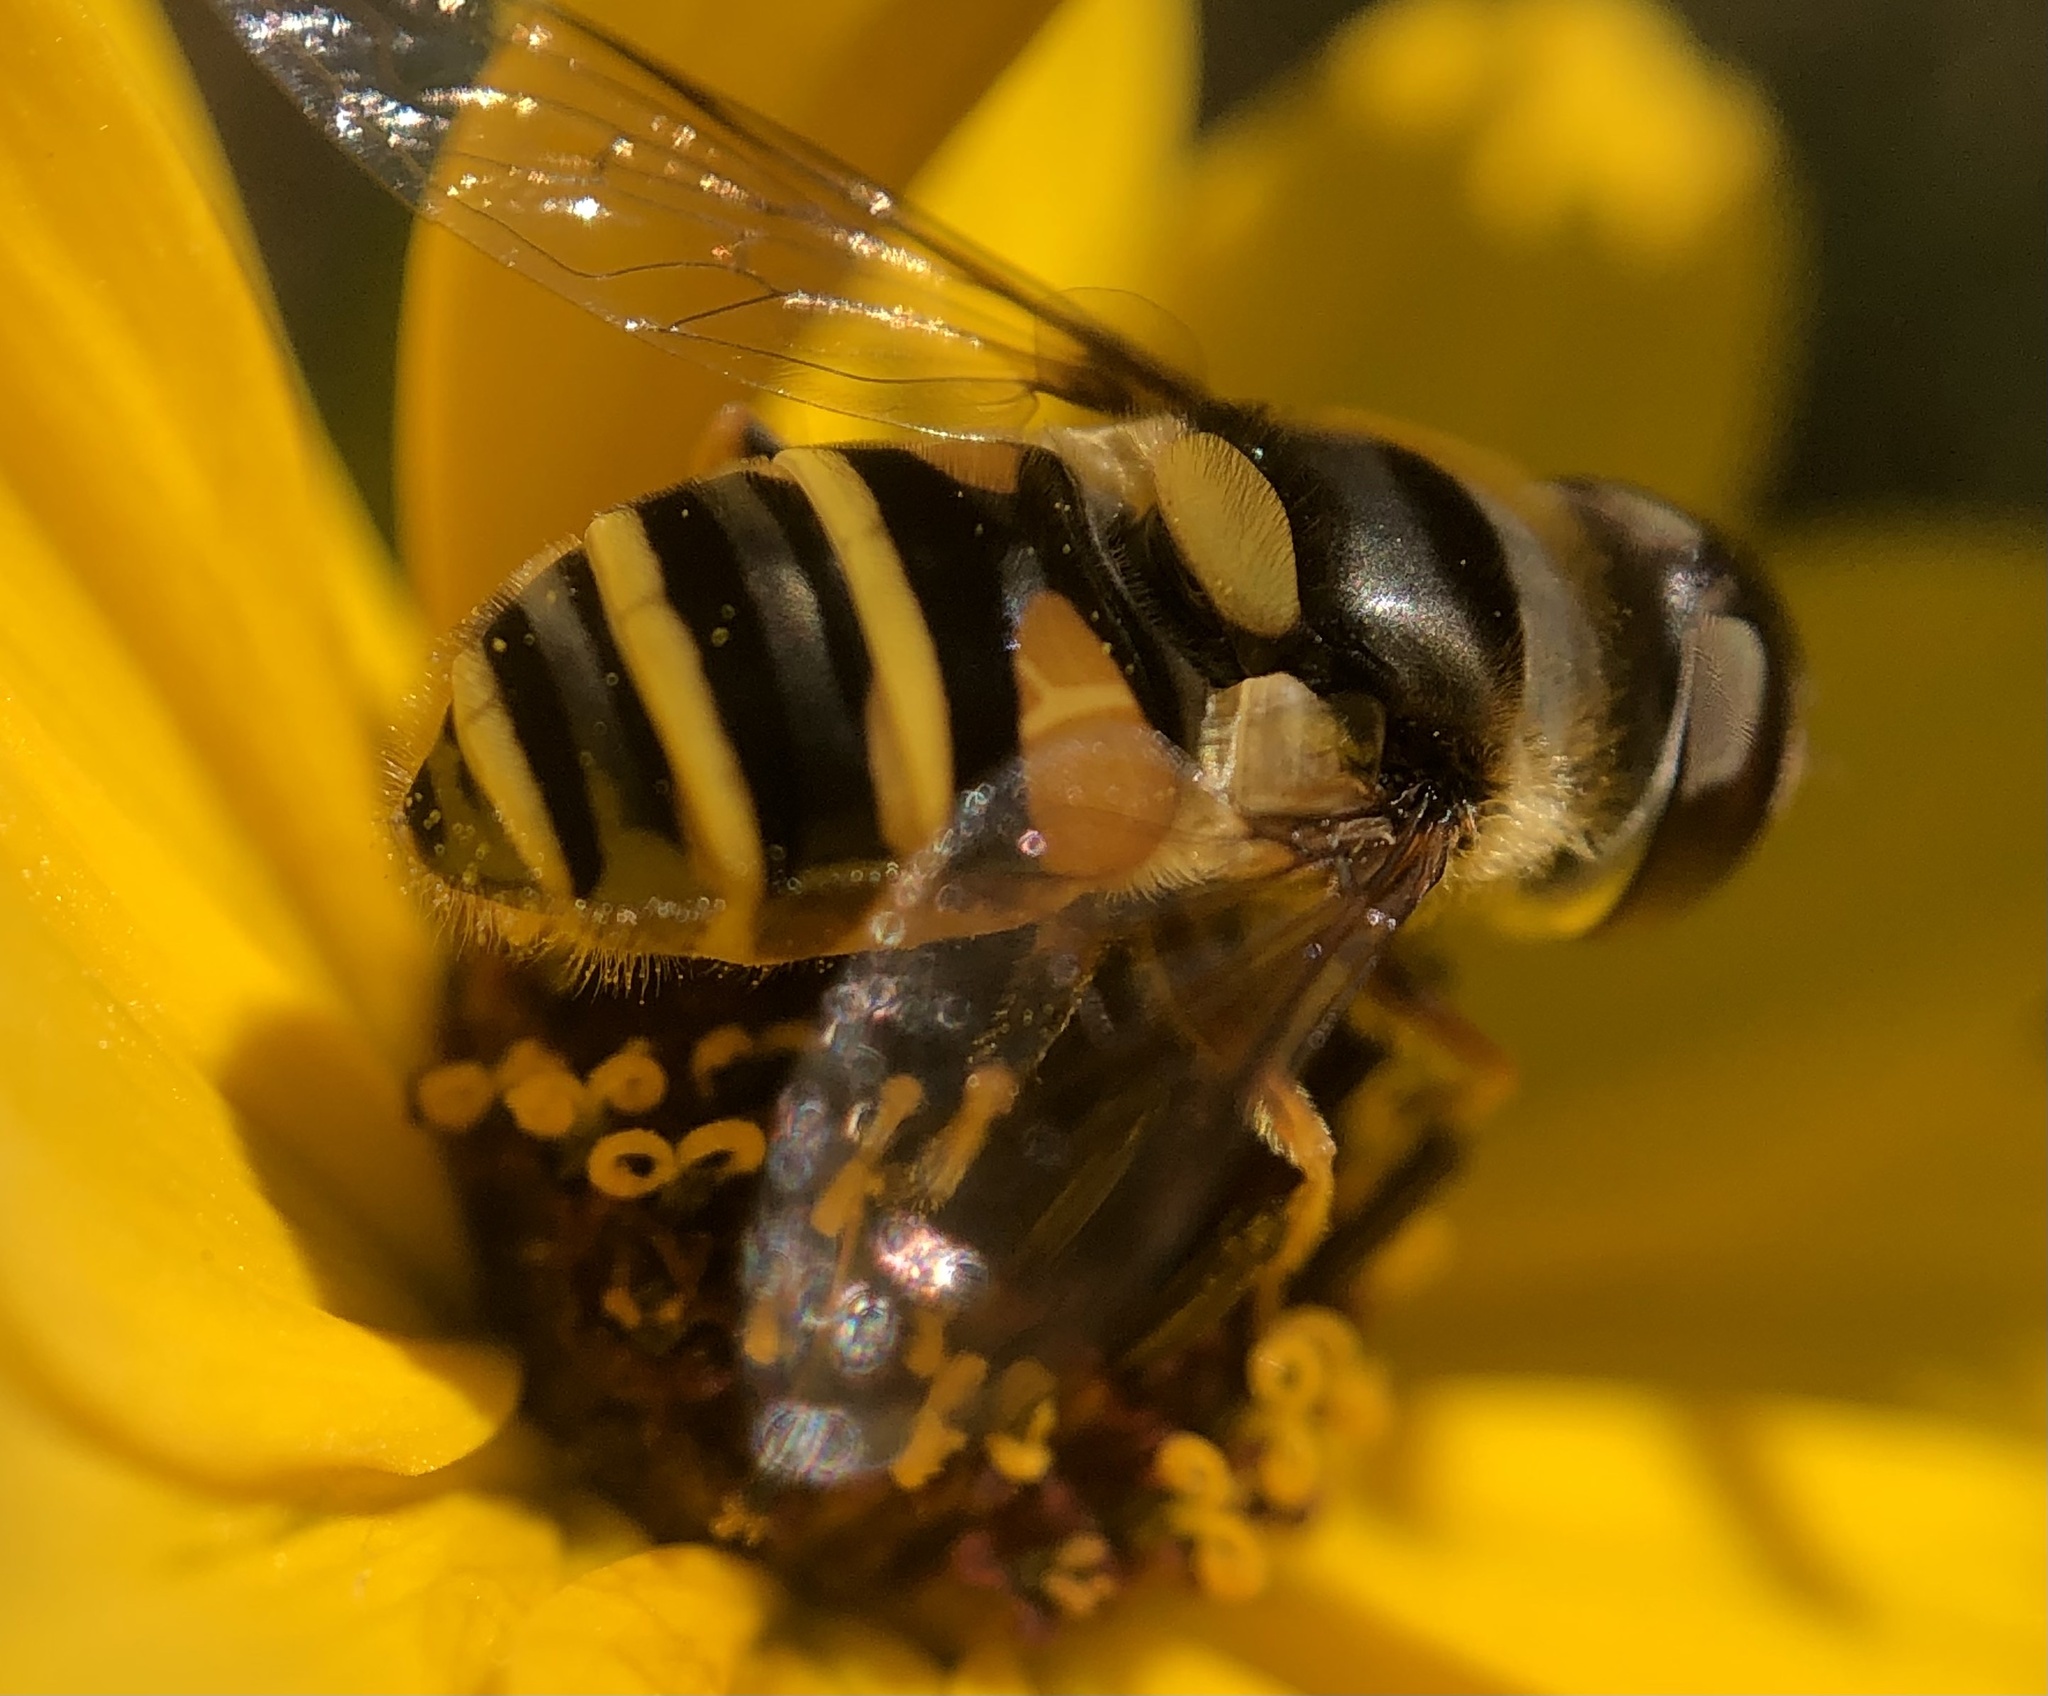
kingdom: Animalia
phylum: Arthropoda
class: Insecta
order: Diptera
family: Syrphidae
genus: Eristalis
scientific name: Eristalis transversa
